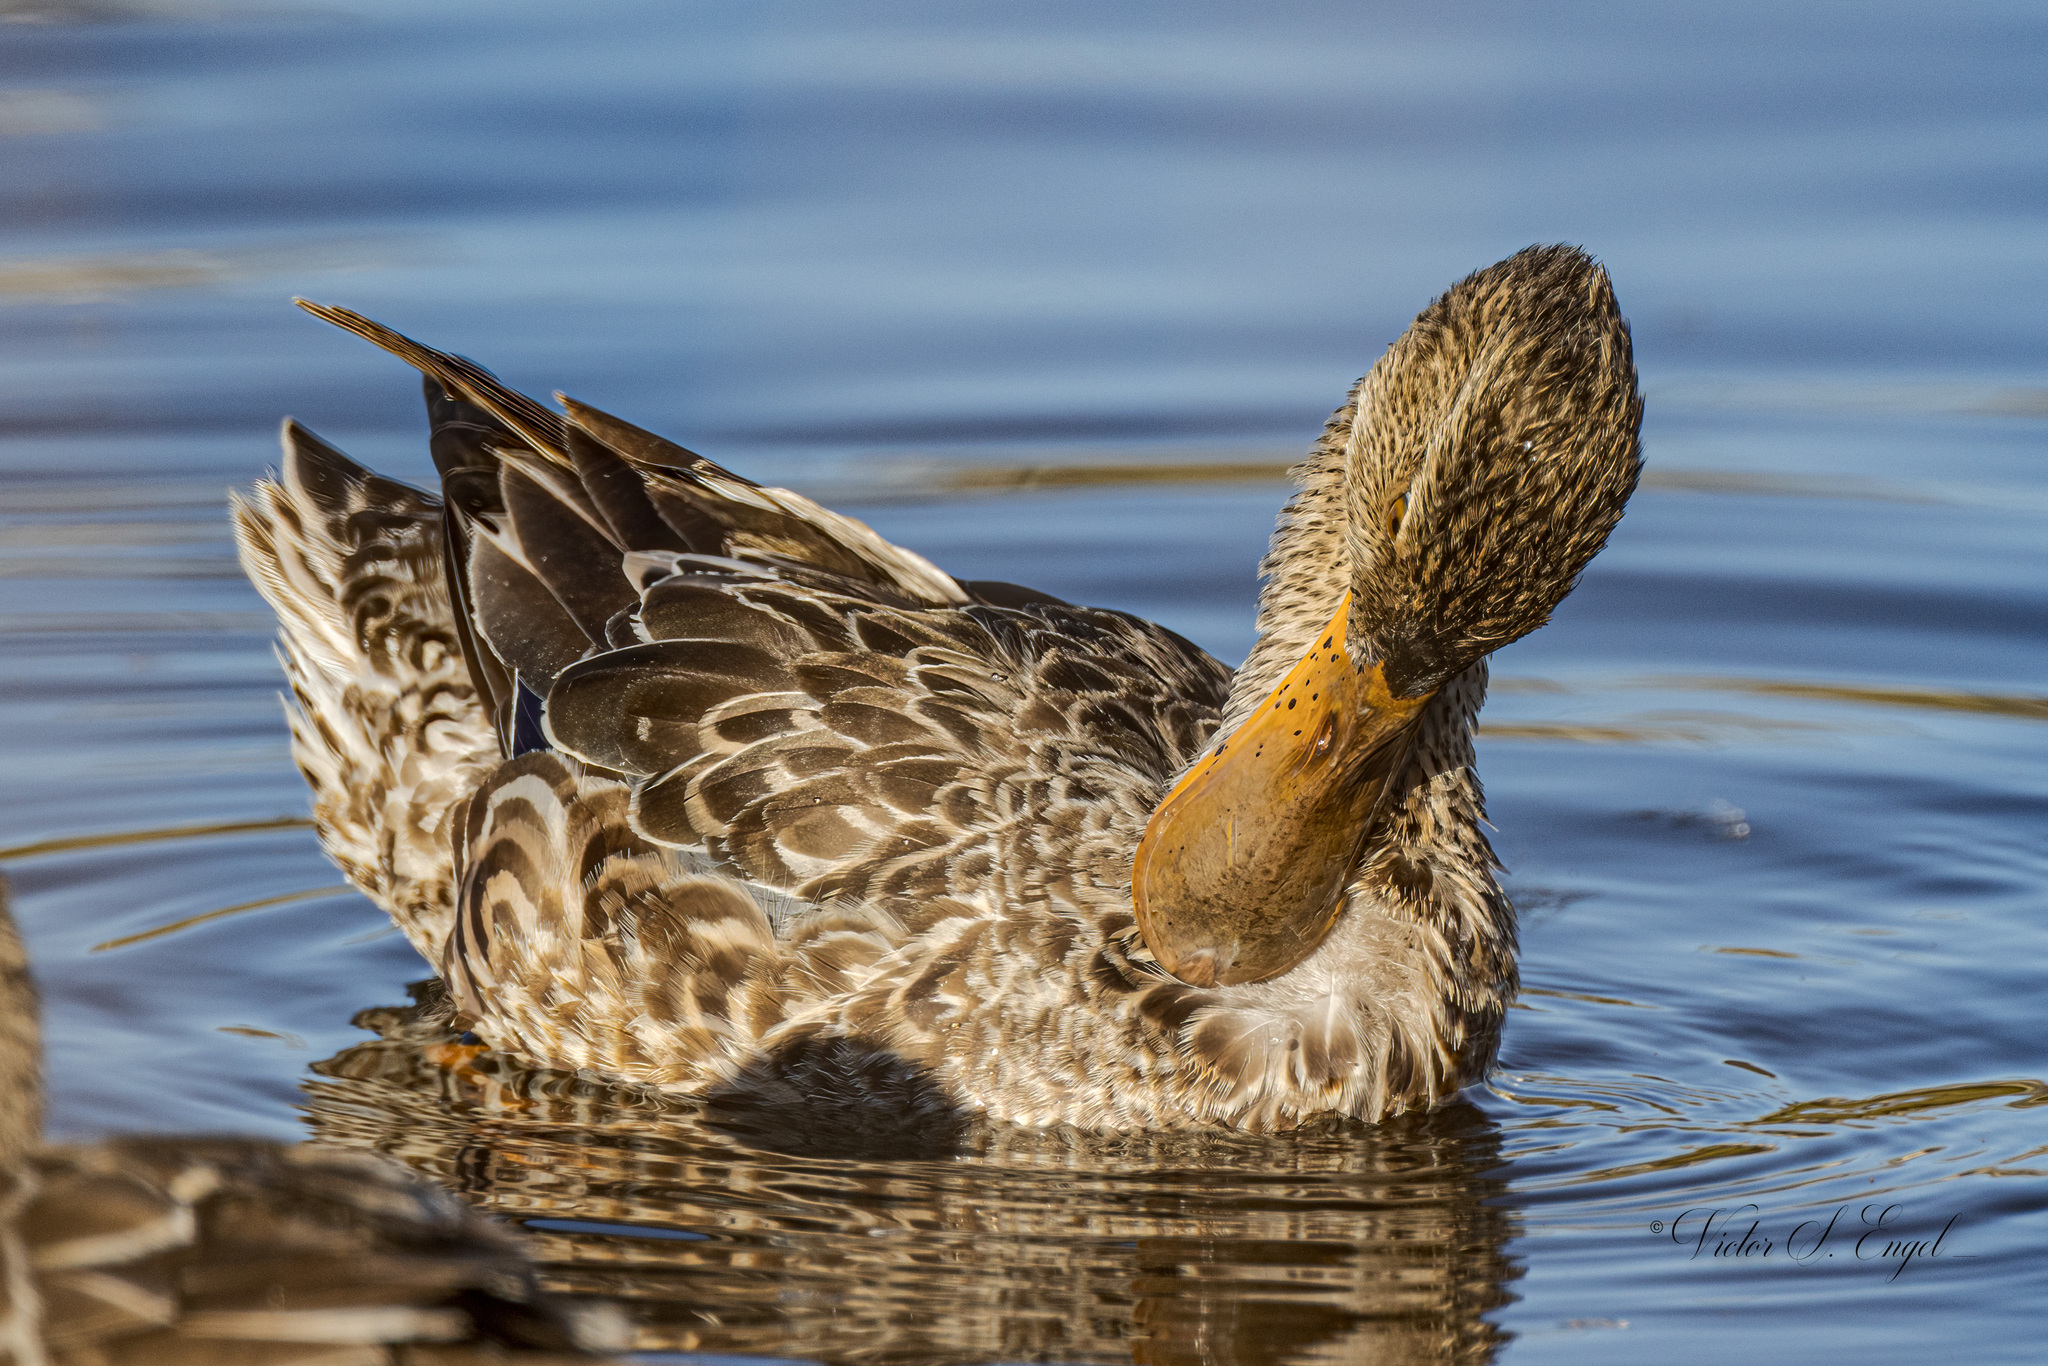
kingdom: Animalia
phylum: Chordata
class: Aves
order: Anseriformes
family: Anatidae
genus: Spatula
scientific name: Spatula clypeata
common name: Northern shoveler
